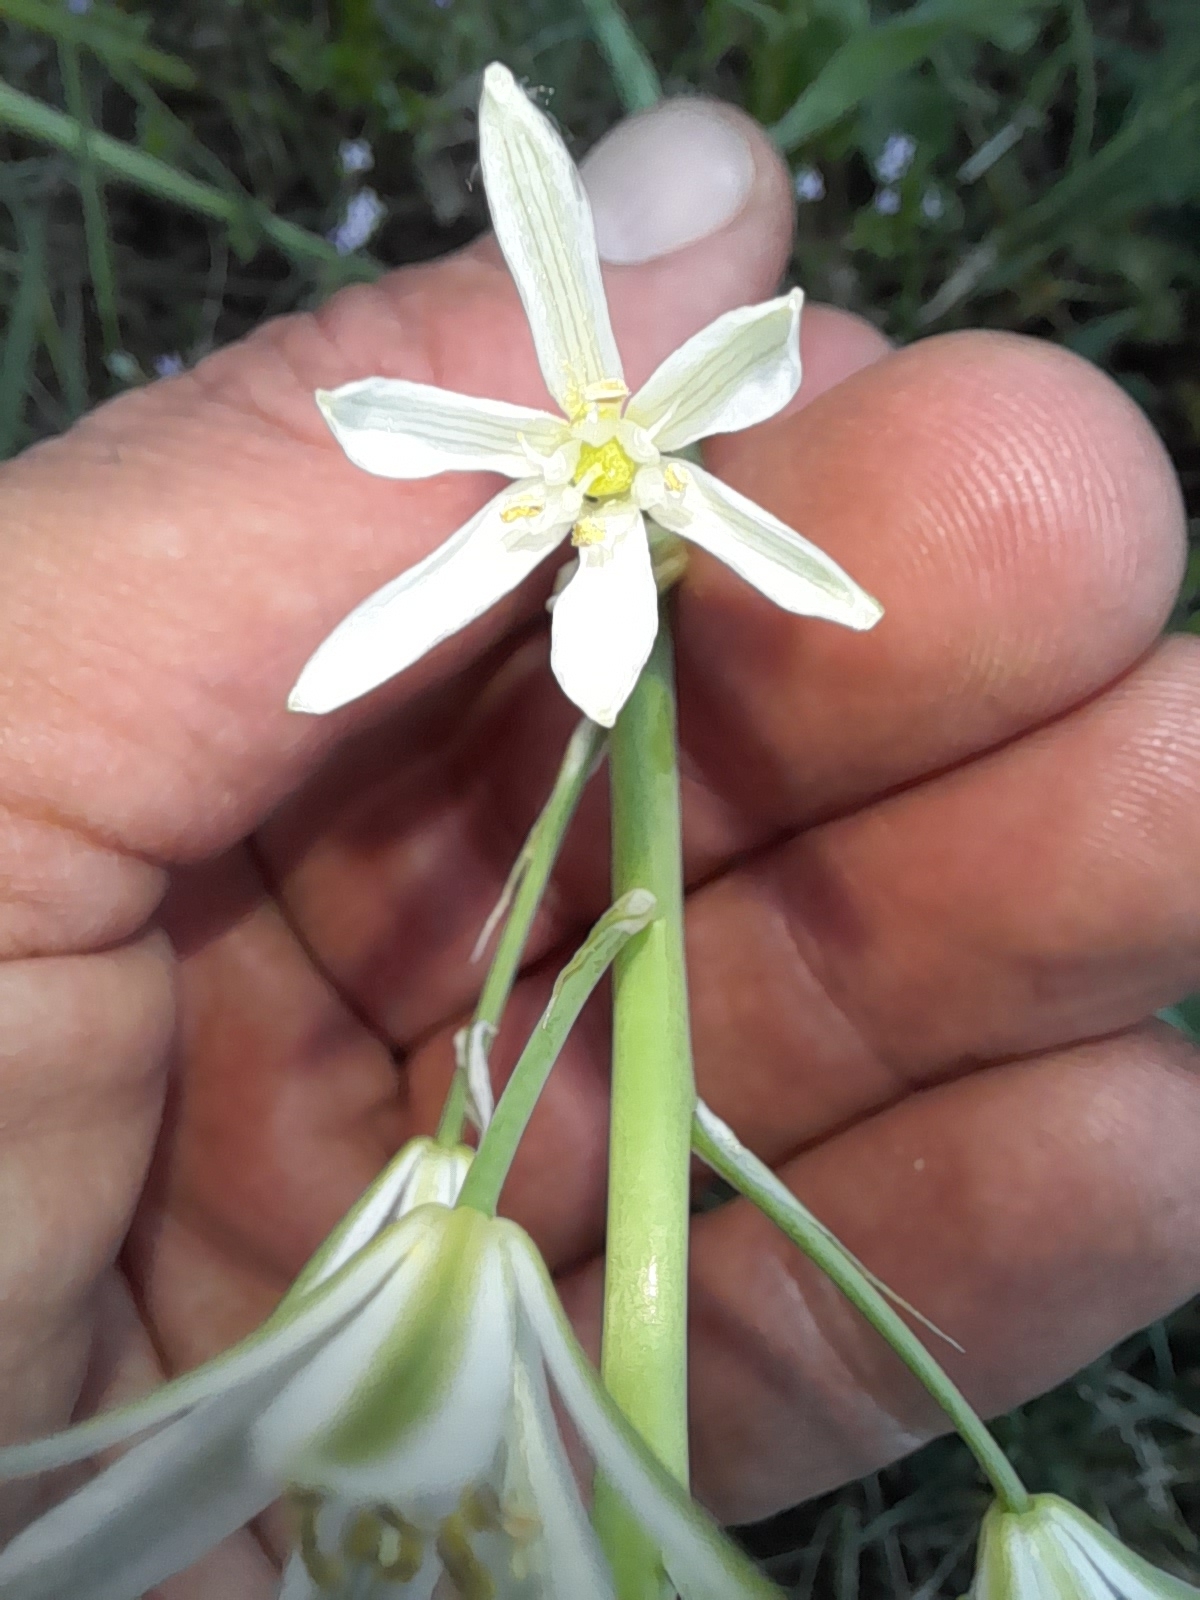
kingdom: Plantae
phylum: Tracheophyta
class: Liliopsida
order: Asparagales
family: Asparagaceae
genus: Ornithogalum
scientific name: Ornithogalum narbonense
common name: Bath-asparagus
